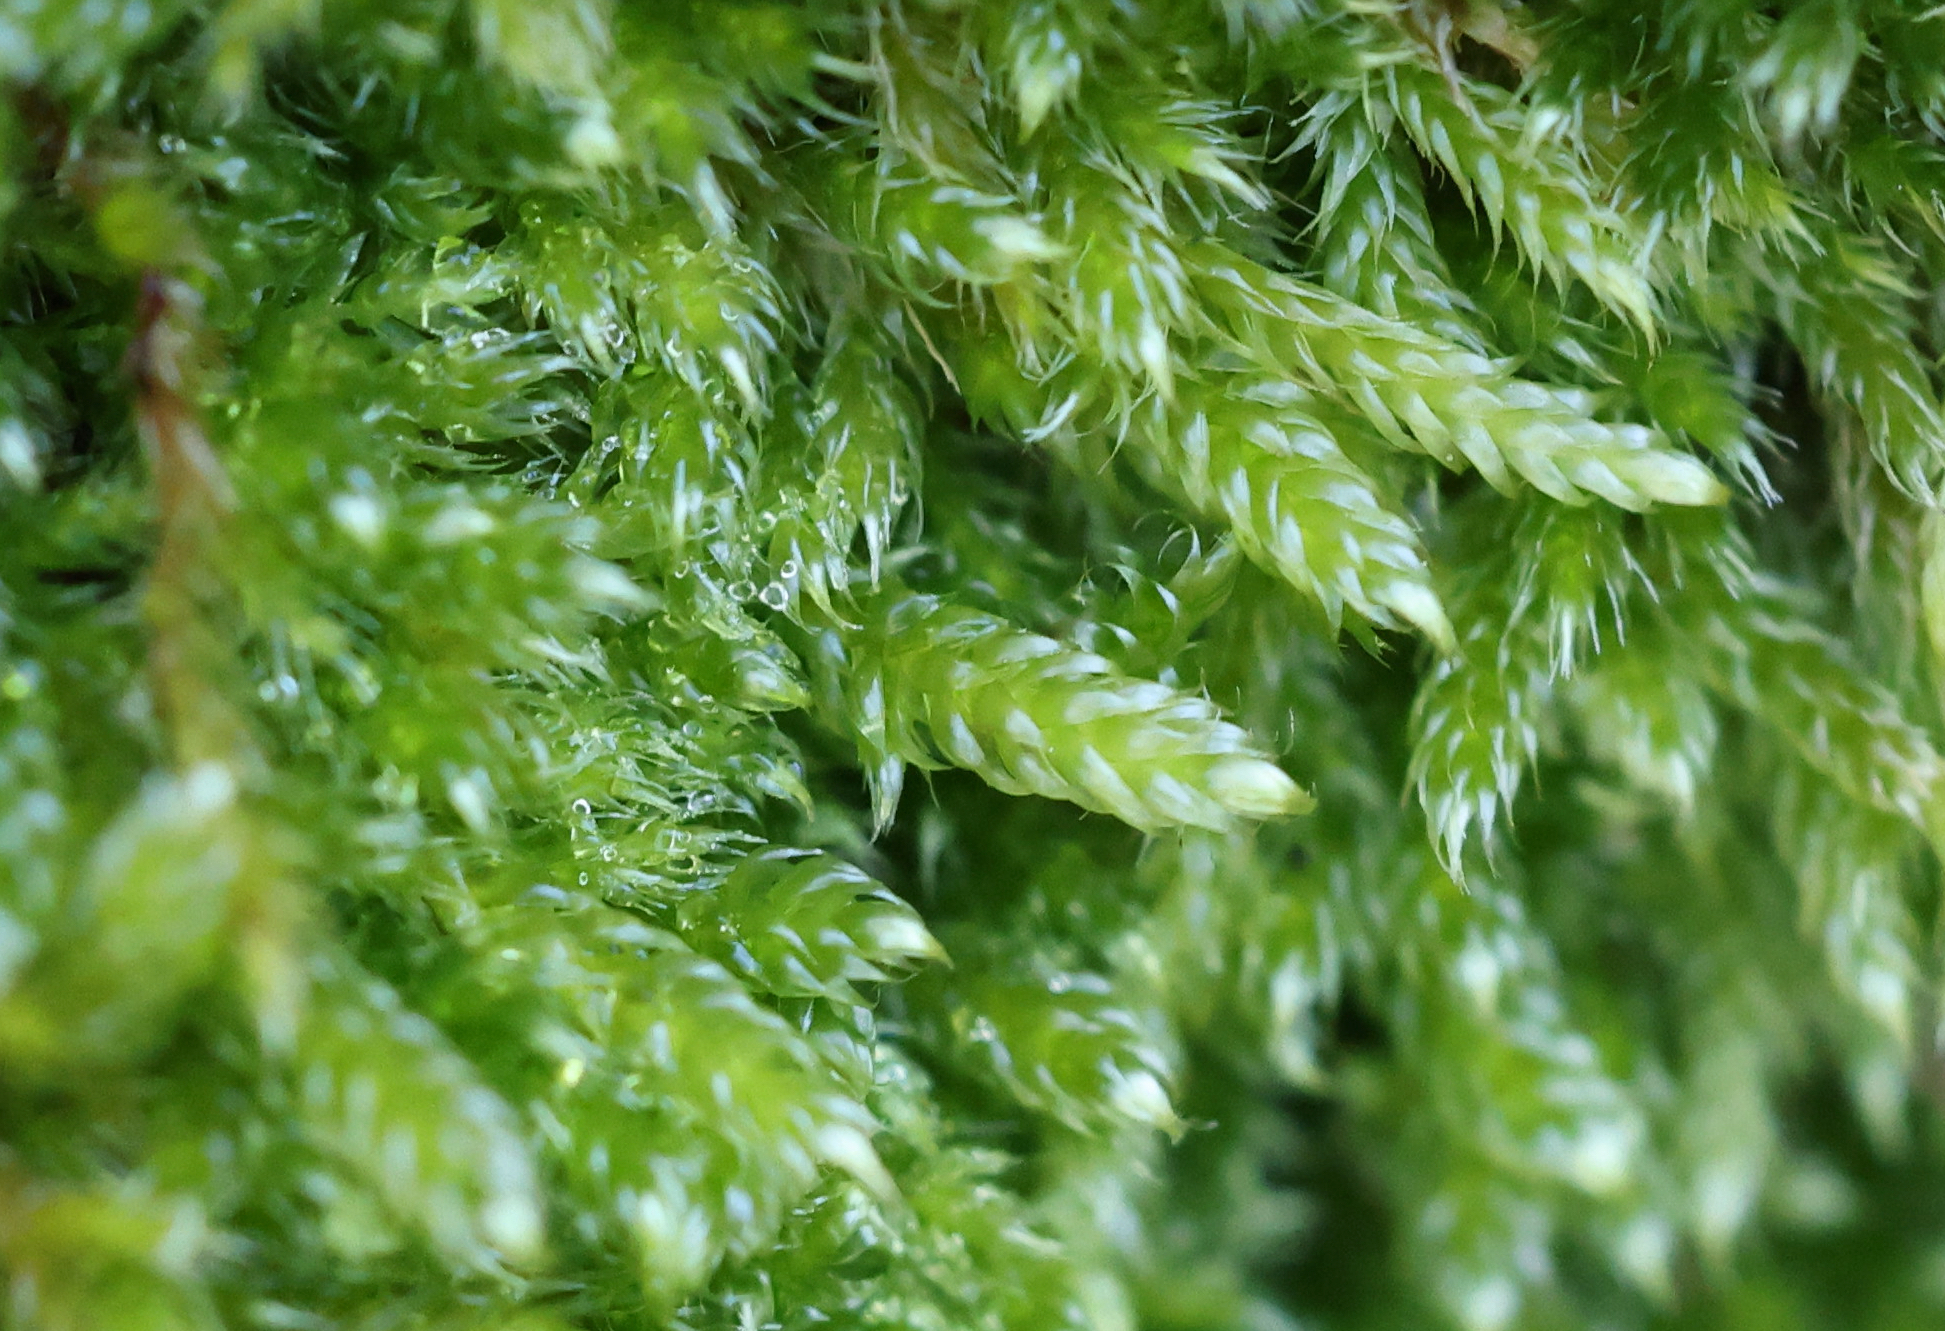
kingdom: Plantae
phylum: Bryophyta
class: Bryopsida
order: Hypnales
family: Hypnaceae
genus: Hypnum
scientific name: Hypnum cupressiforme
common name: Cypress-leaved plait-moss
